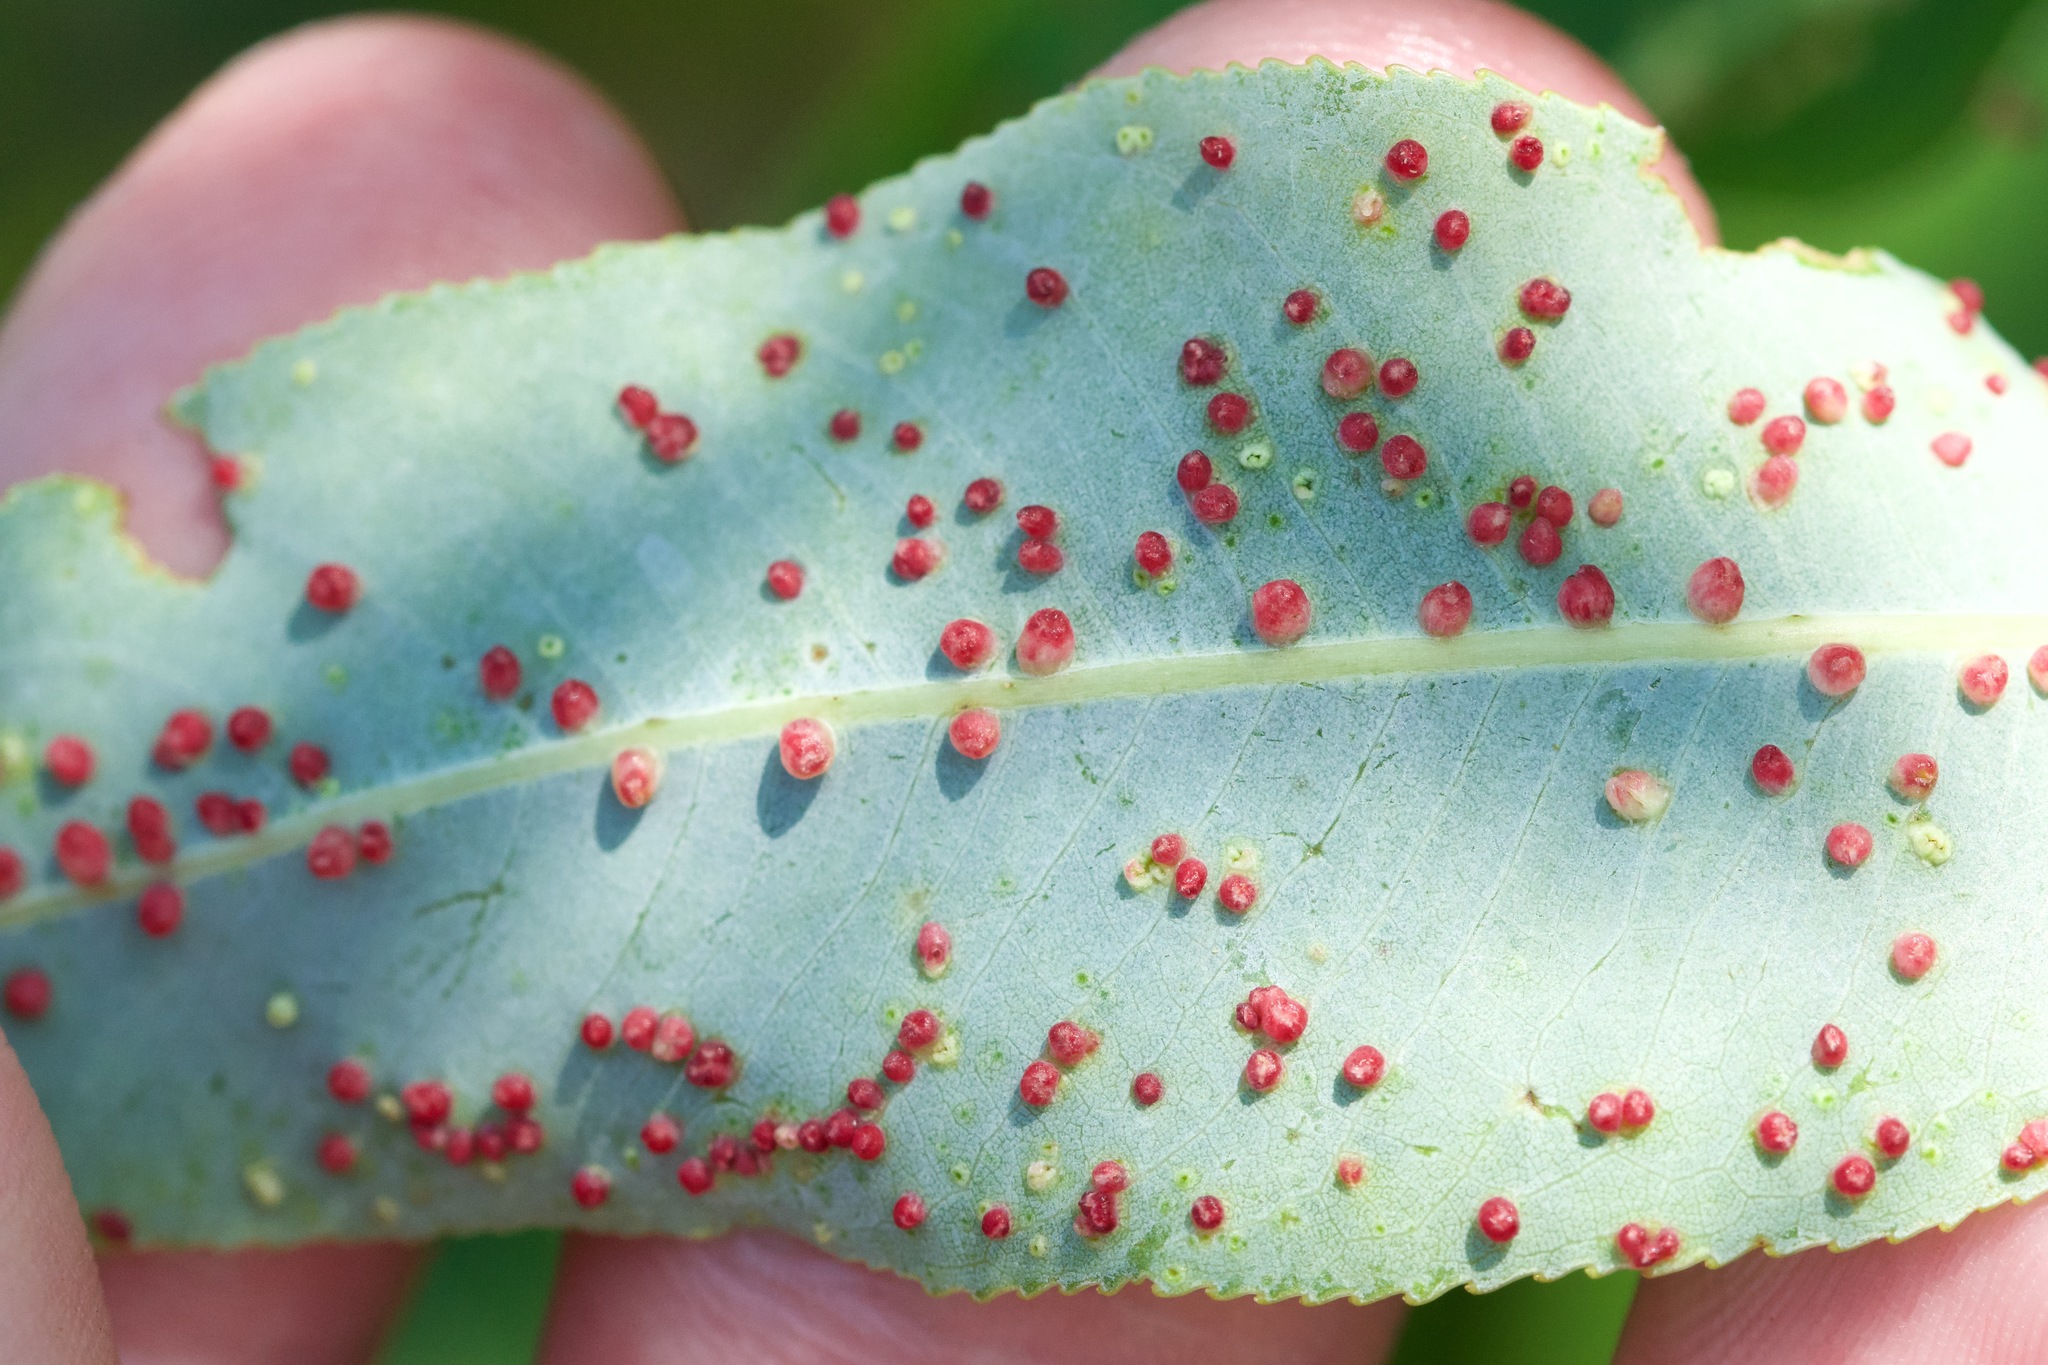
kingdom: Animalia
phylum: Arthropoda
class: Arachnida
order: Trombidiformes
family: Eriophyidae
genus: Aculus
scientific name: Aculus tetanothrix
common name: Willow bead gall mite
